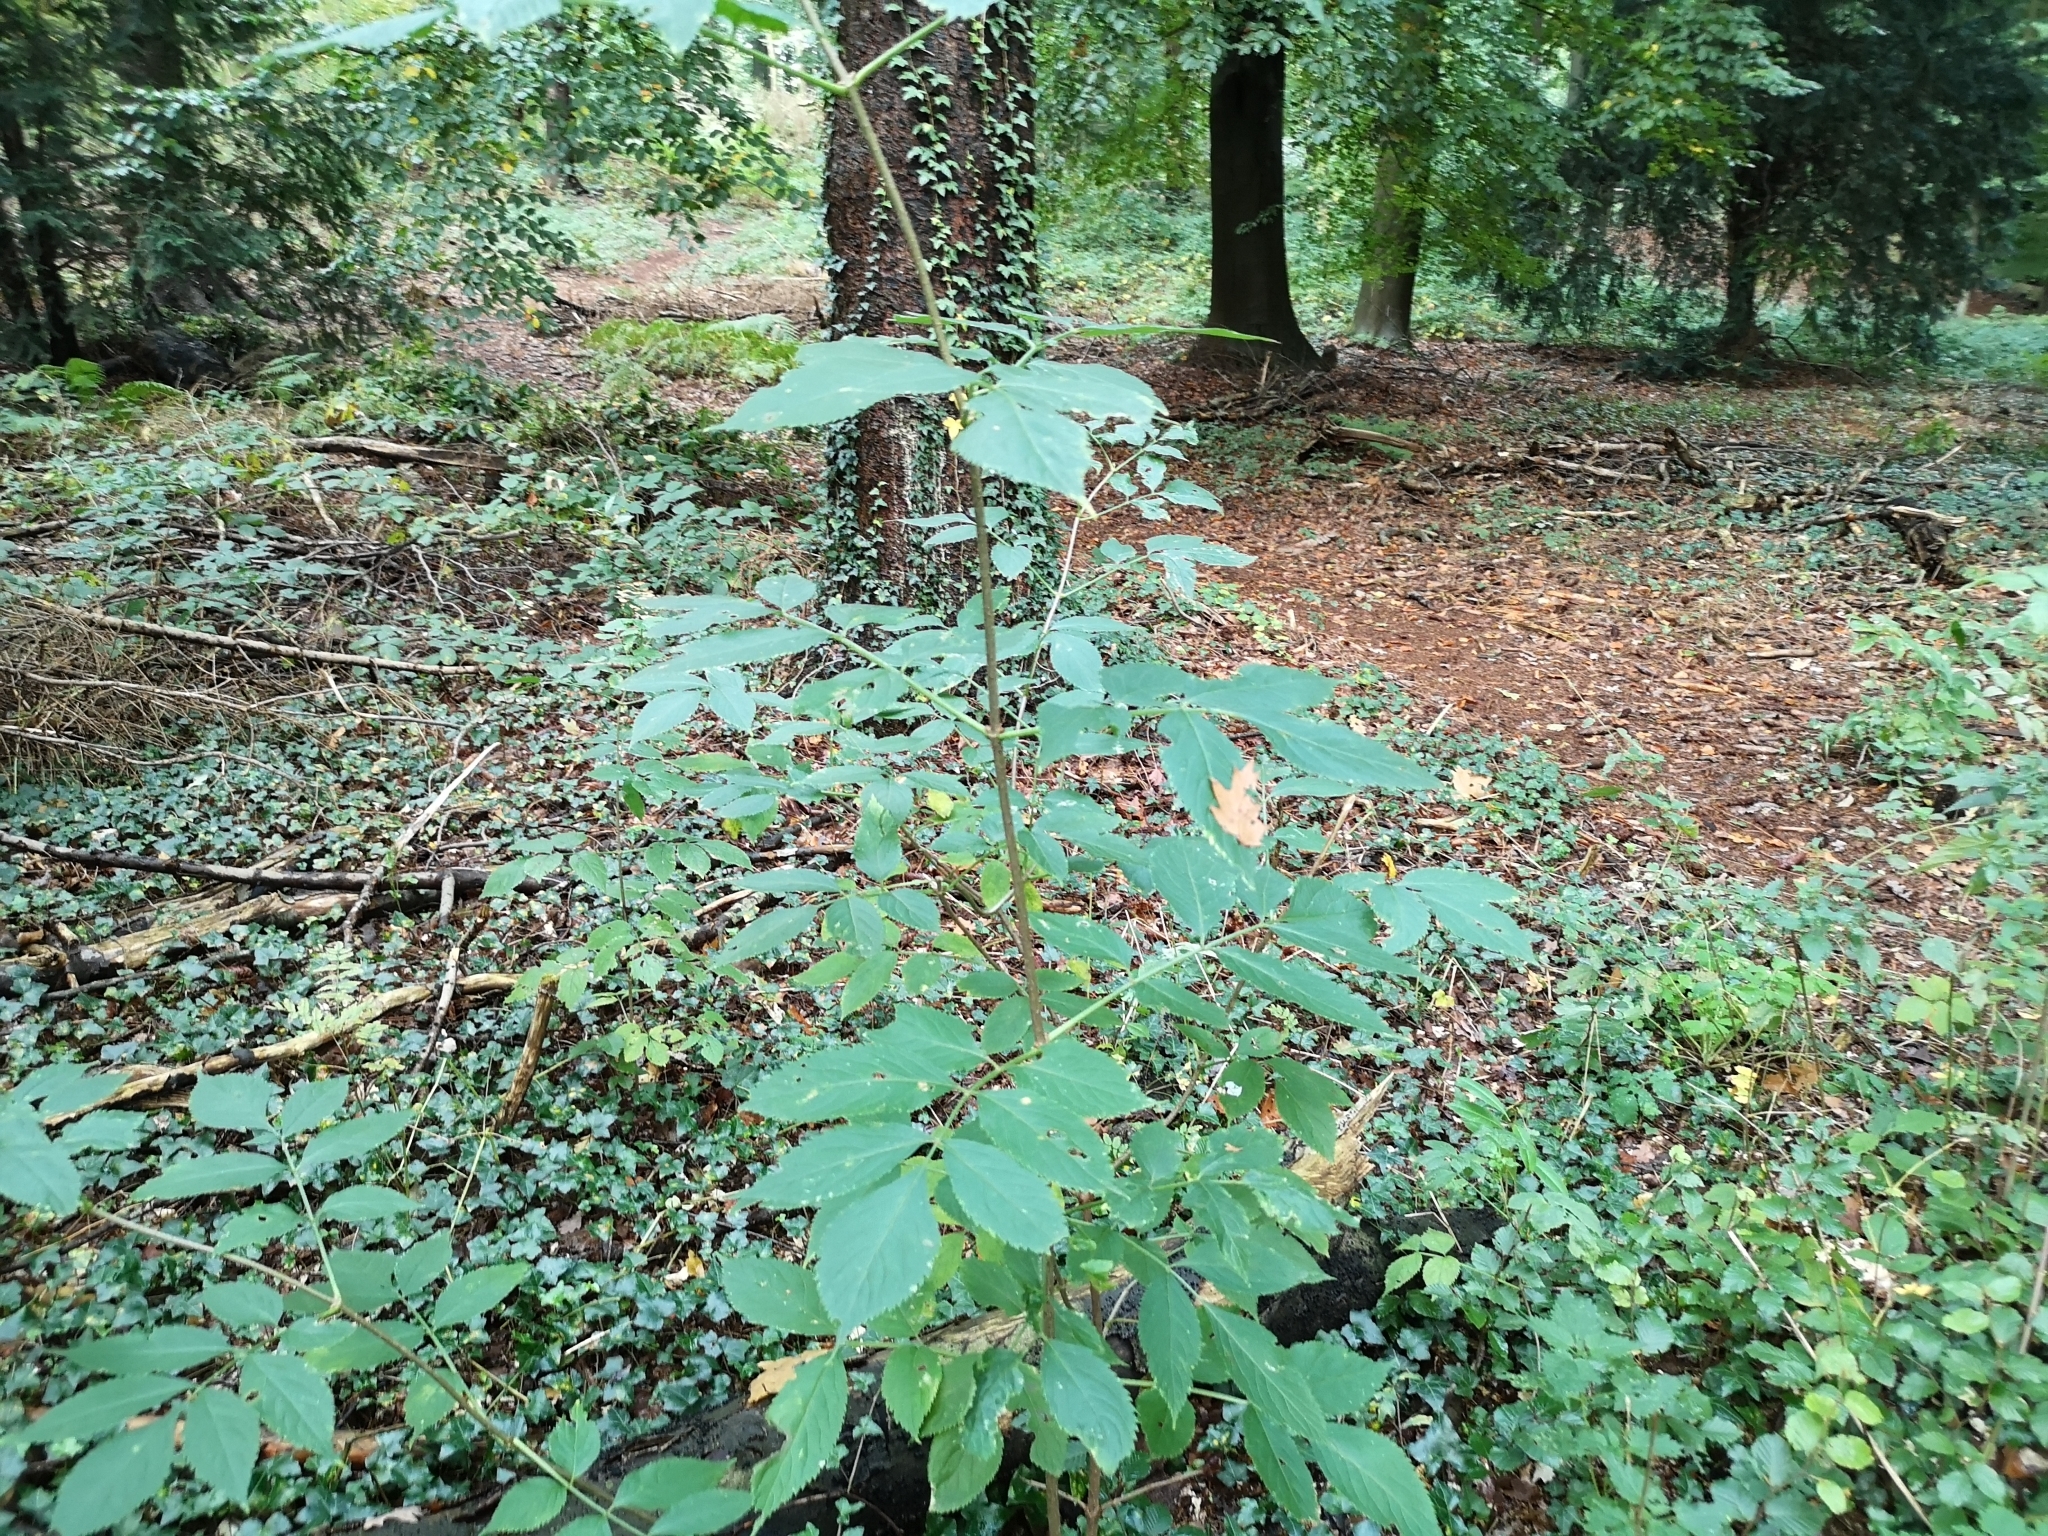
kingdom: Plantae
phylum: Tracheophyta
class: Magnoliopsida
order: Dipsacales
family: Viburnaceae
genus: Sambucus
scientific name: Sambucus nigra
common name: Elder
